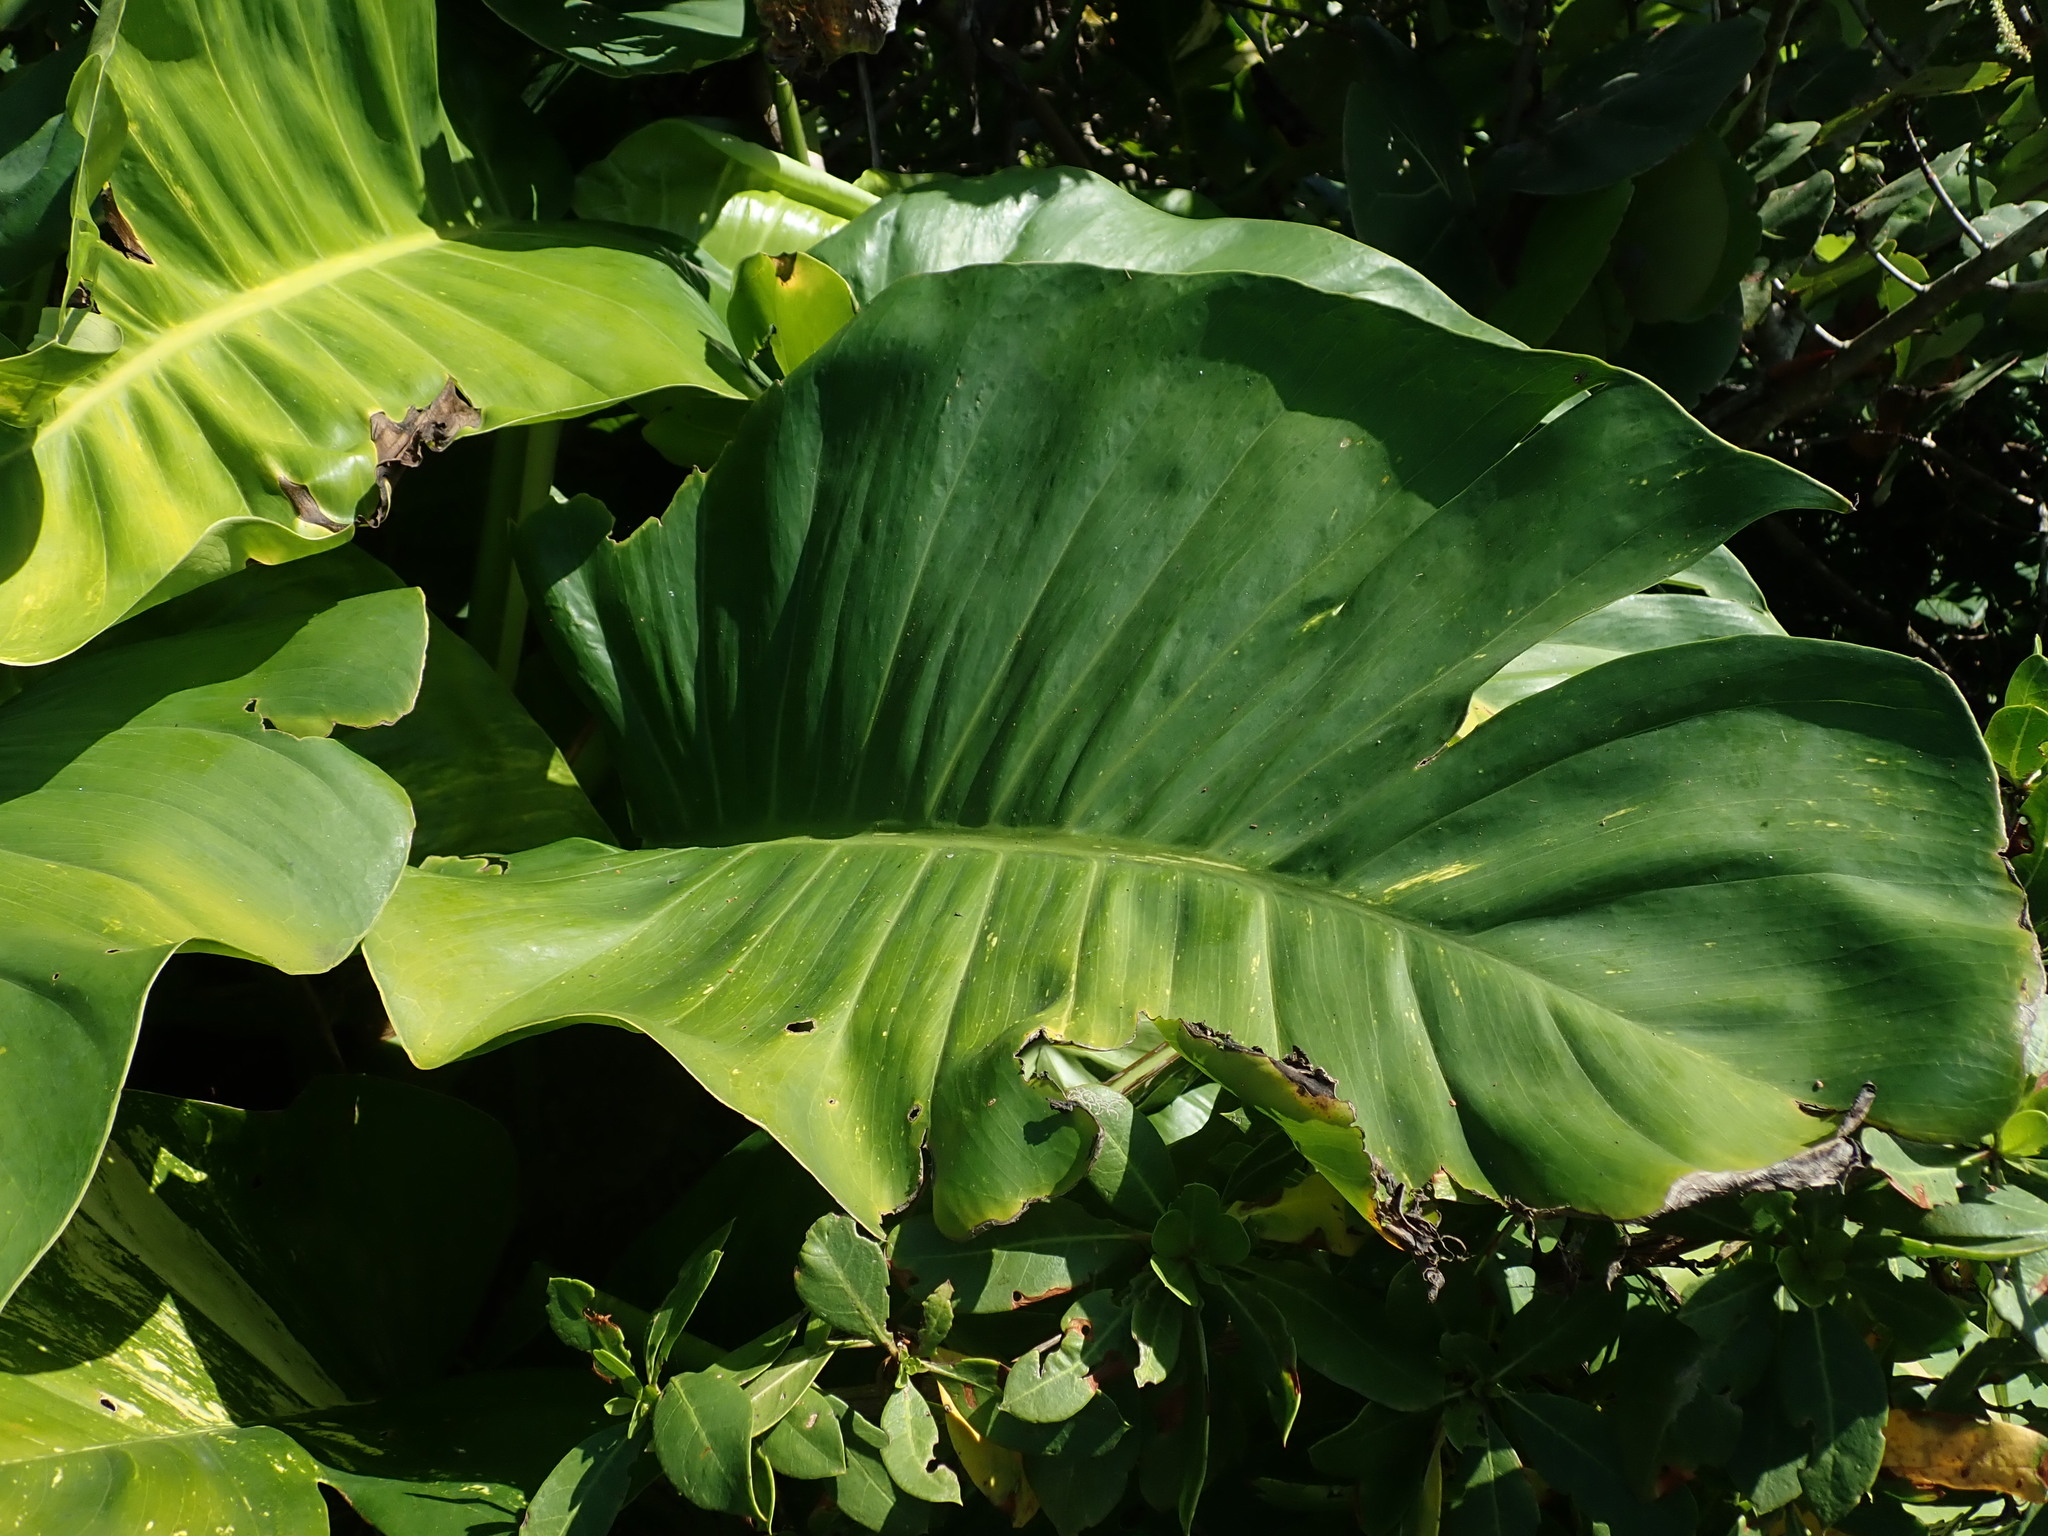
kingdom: Plantae
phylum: Tracheophyta
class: Liliopsida
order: Alismatales
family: Araceae
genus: Epipremnum
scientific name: Epipremnum aureum
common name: Golden hunter's-robe
